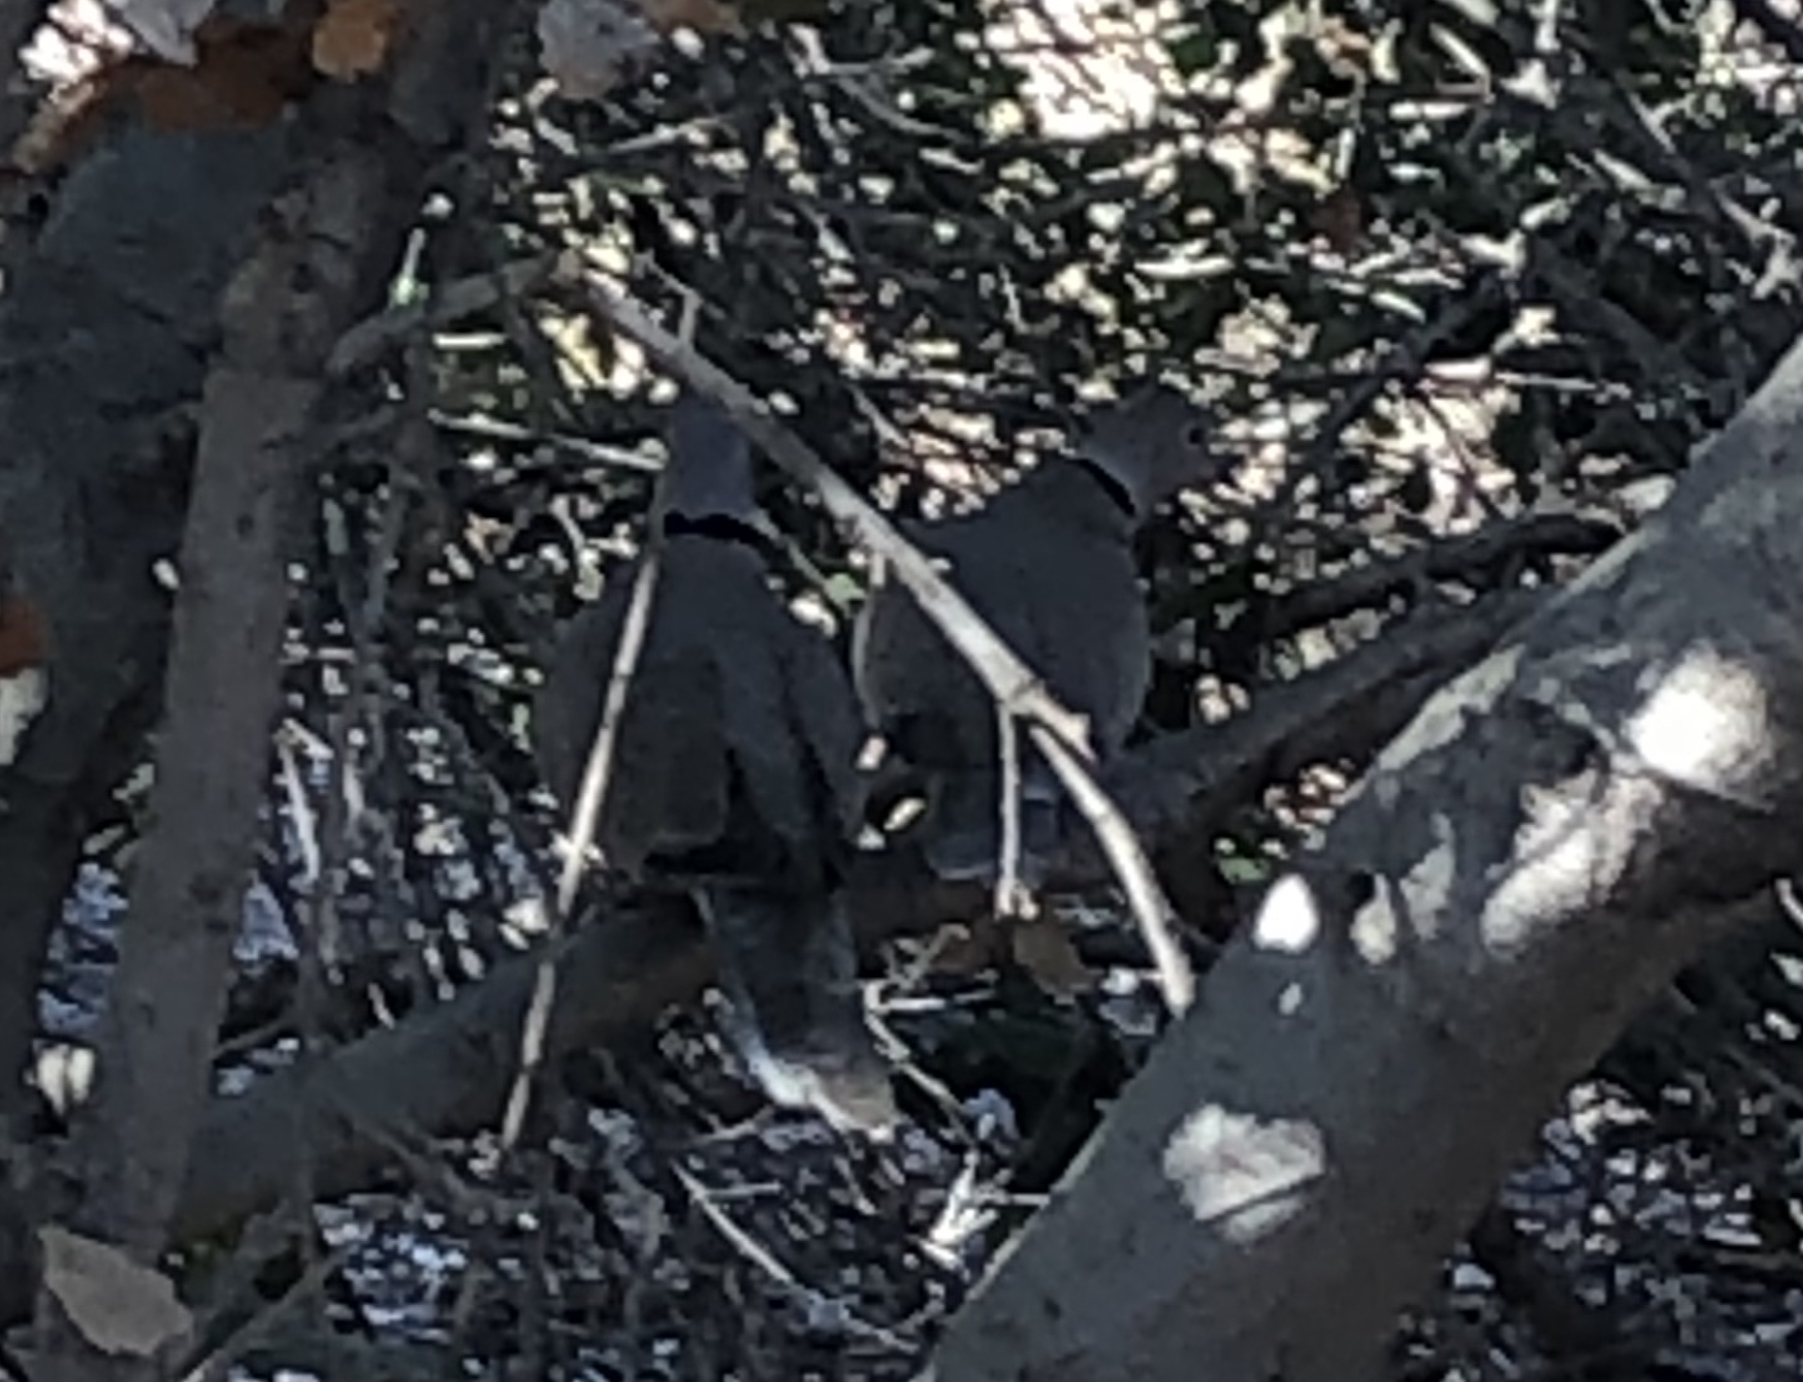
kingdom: Animalia
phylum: Chordata
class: Aves
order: Columbiformes
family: Columbidae
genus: Streptopelia
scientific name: Streptopelia decaocto
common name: Eurasian collared dove
